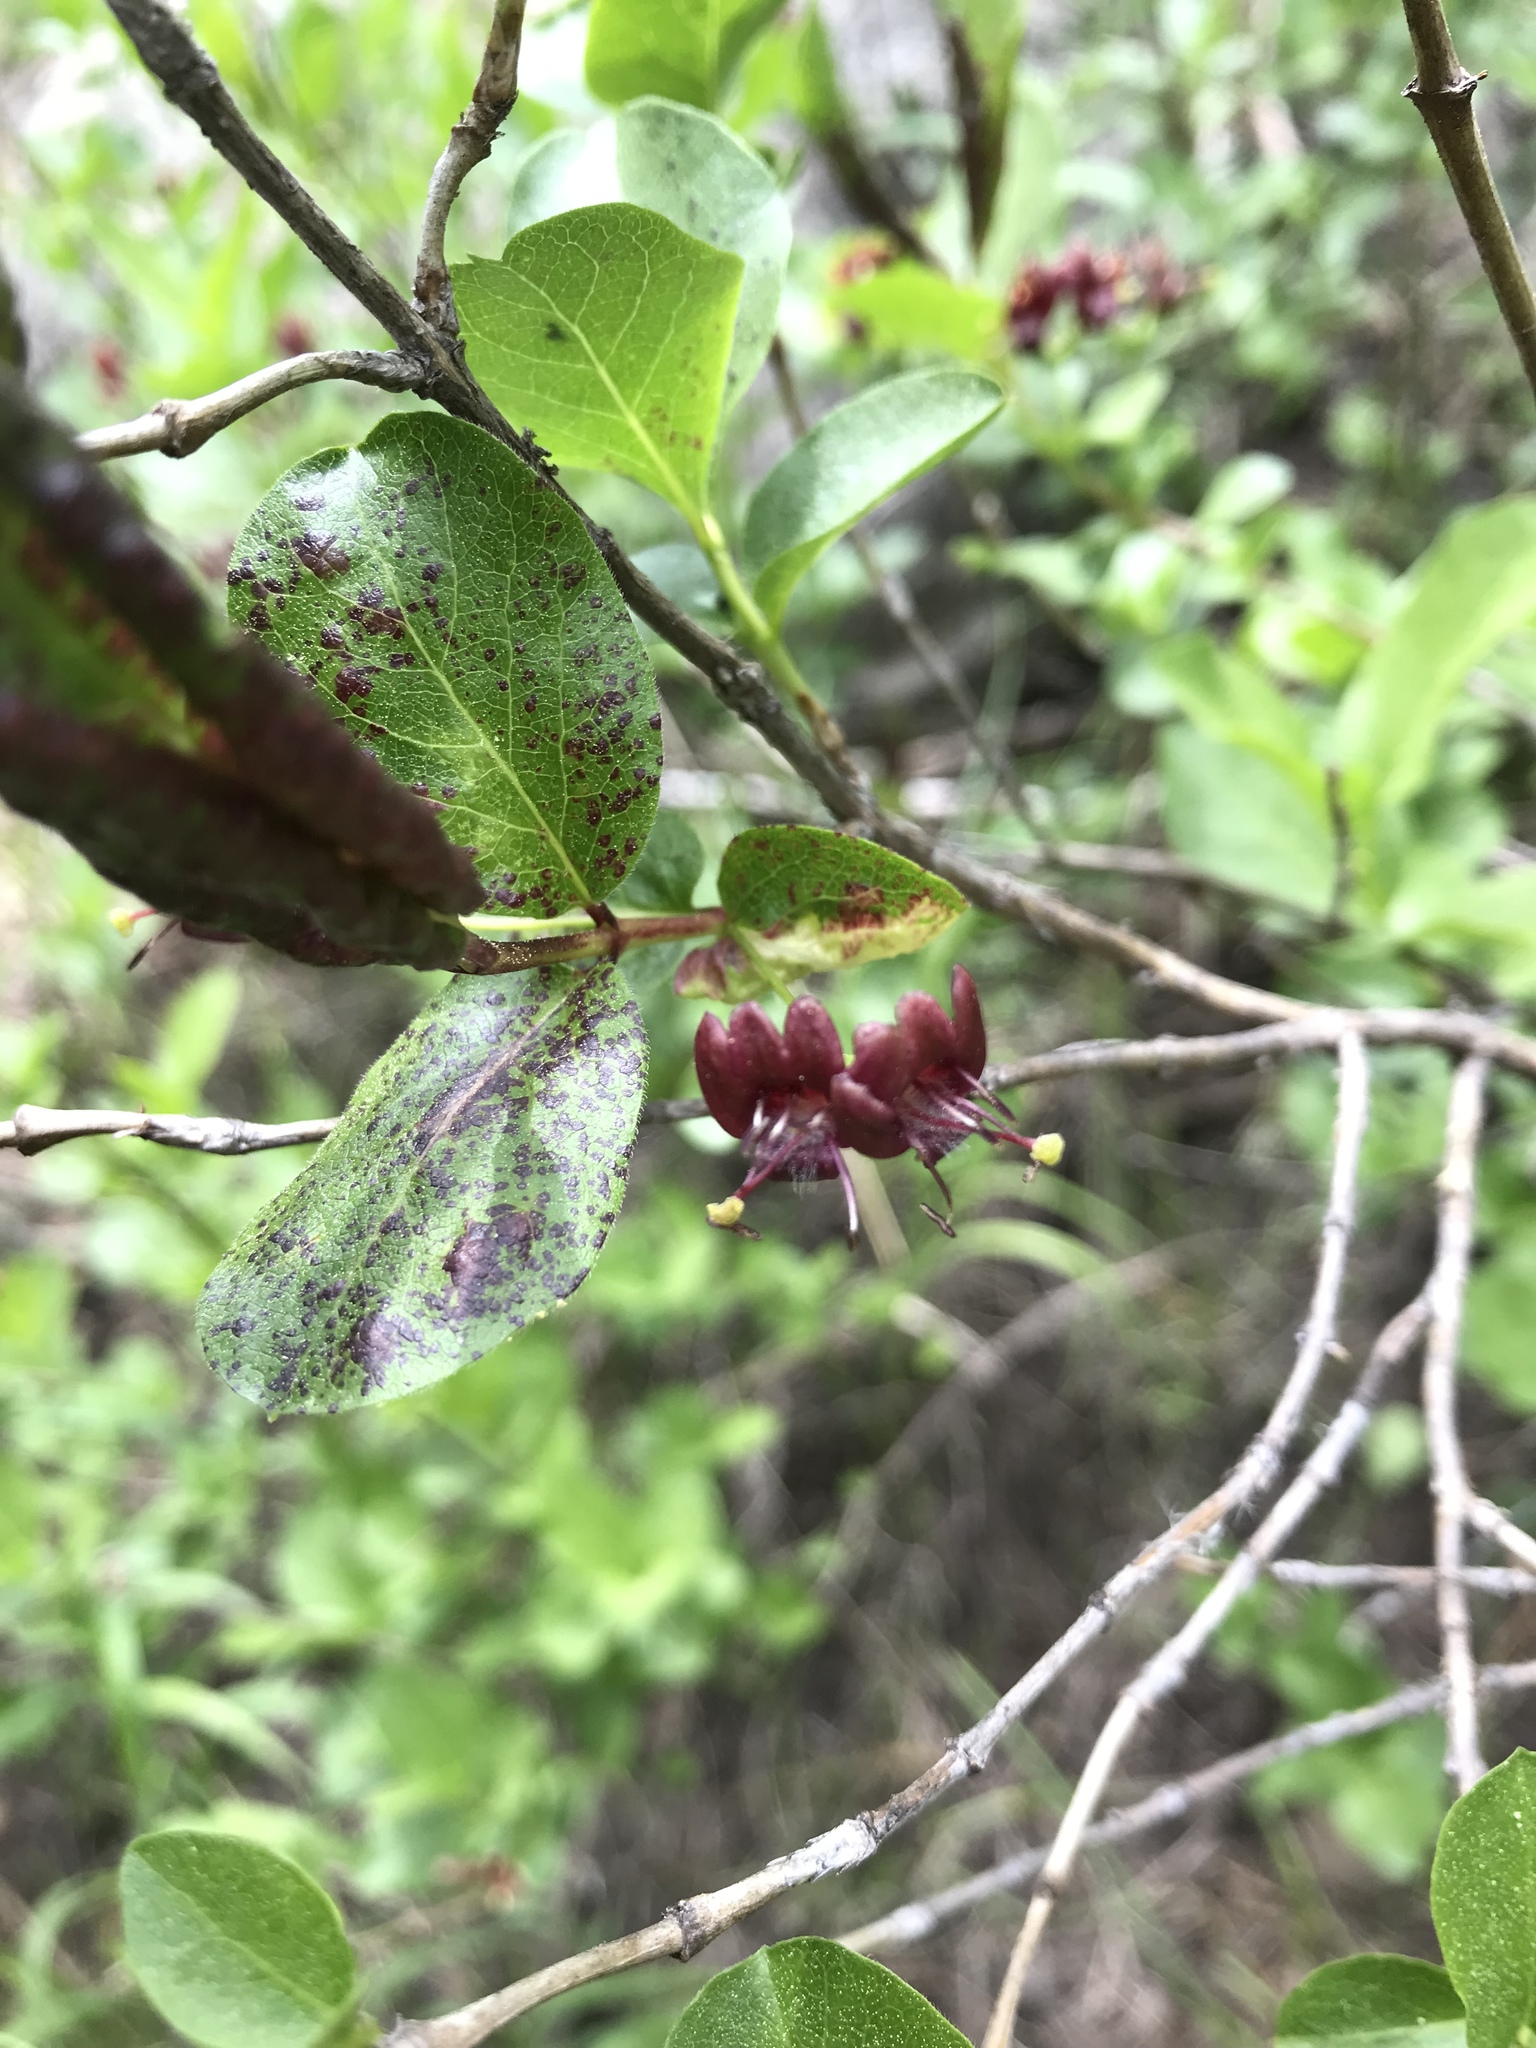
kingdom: Plantae
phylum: Tracheophyta
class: Magnoliopsida
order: Dipsacales
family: Caprifoliaceae
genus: Lonicera
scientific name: Lonicera conjugialis
